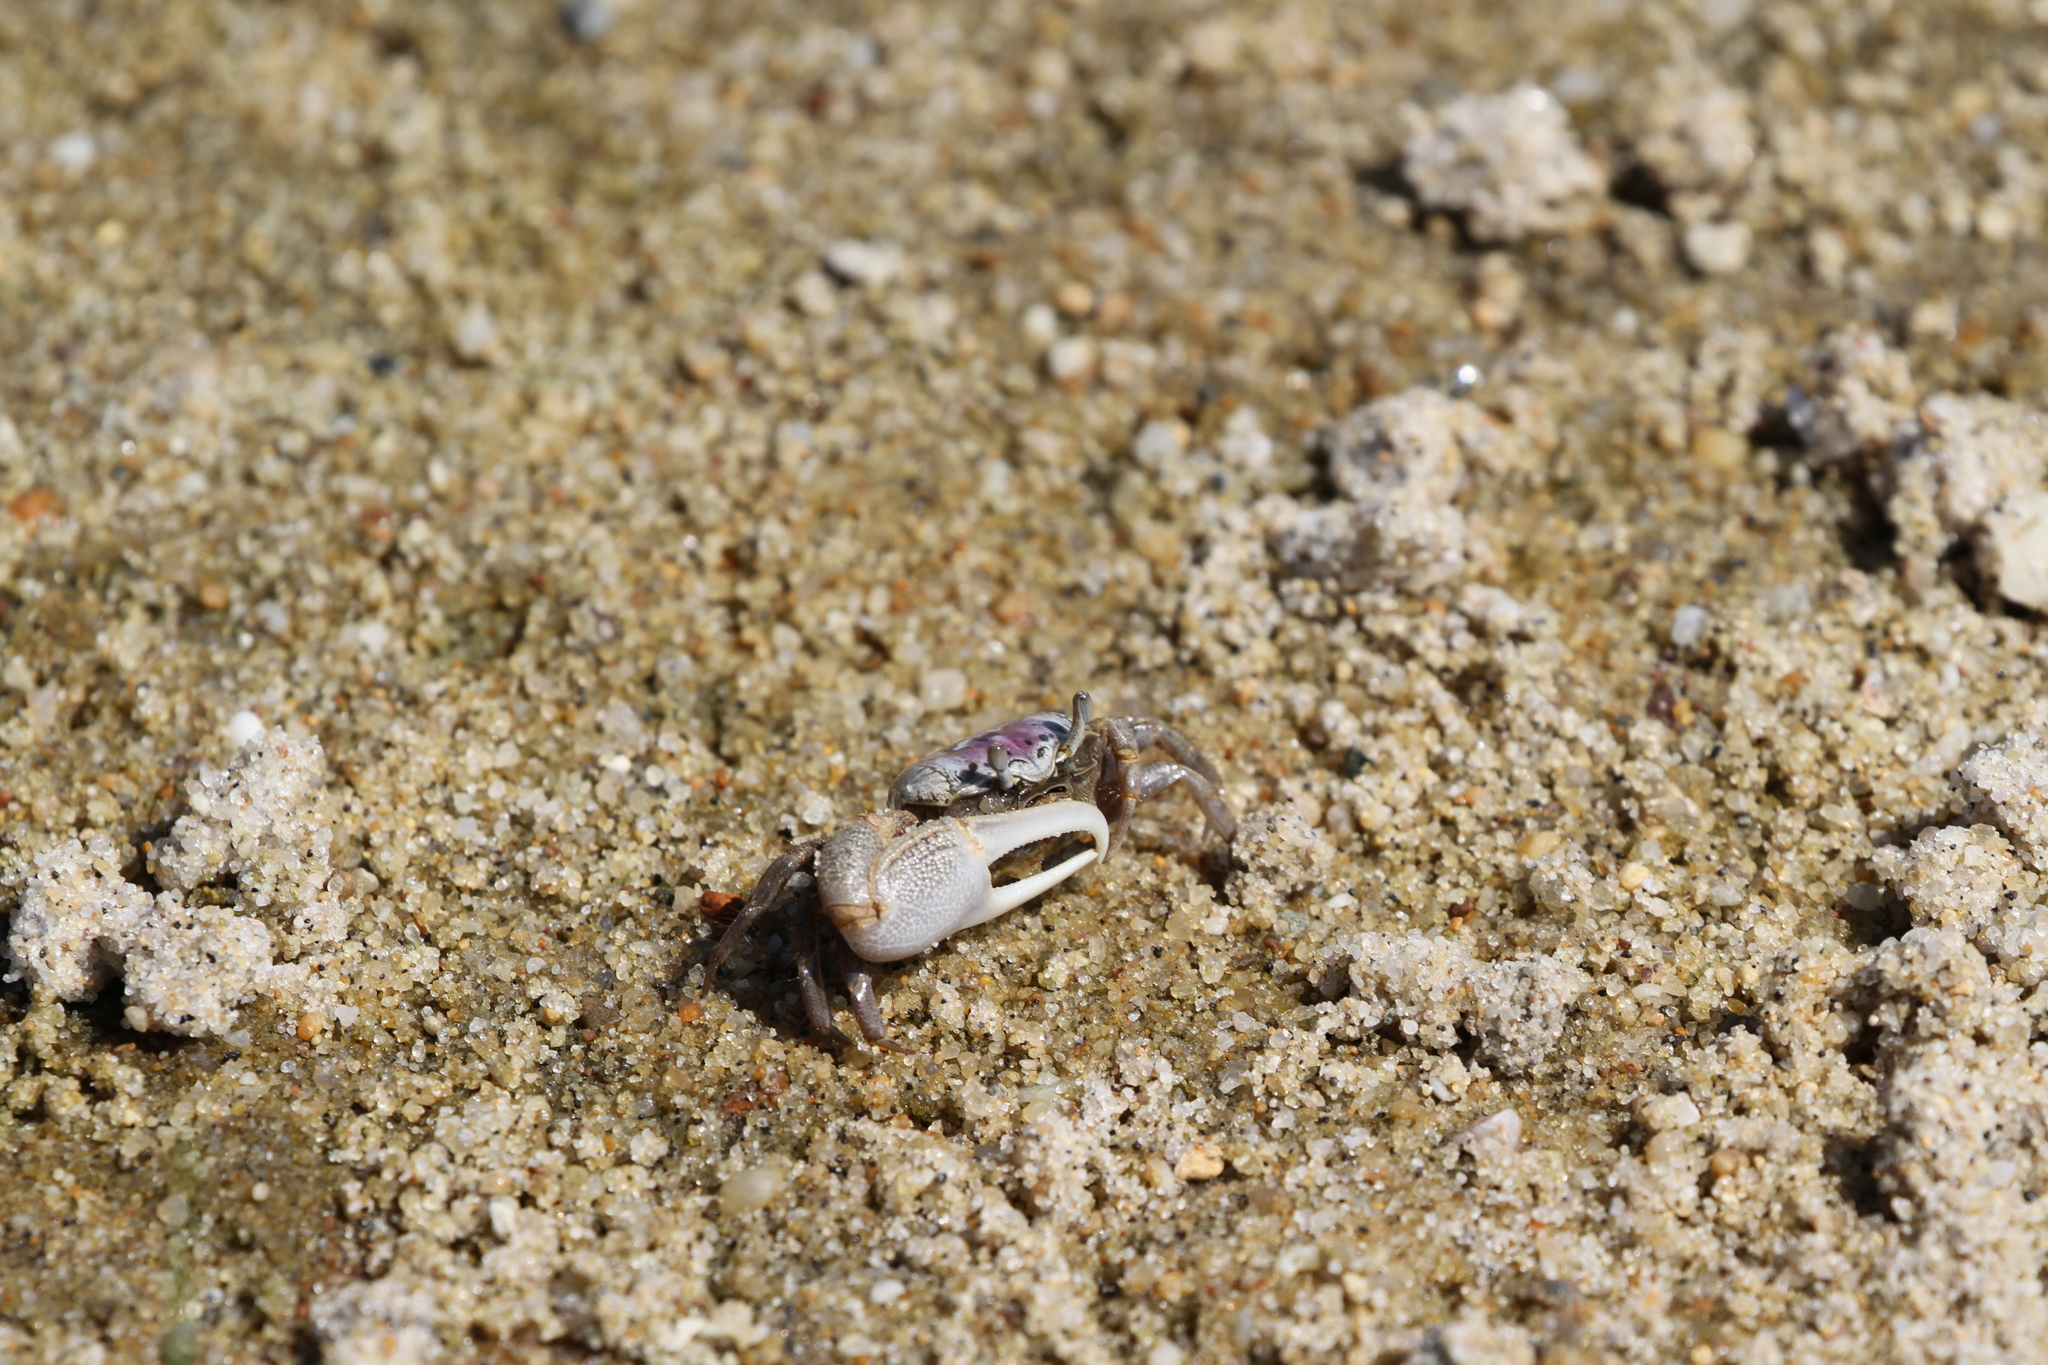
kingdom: Animalia
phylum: Arthropoda
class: Malacostraca
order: Decapoda
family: Ocypodidae
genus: Leptuca
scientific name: Leptuca pugilator
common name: Atlantic sand fiddler crab
